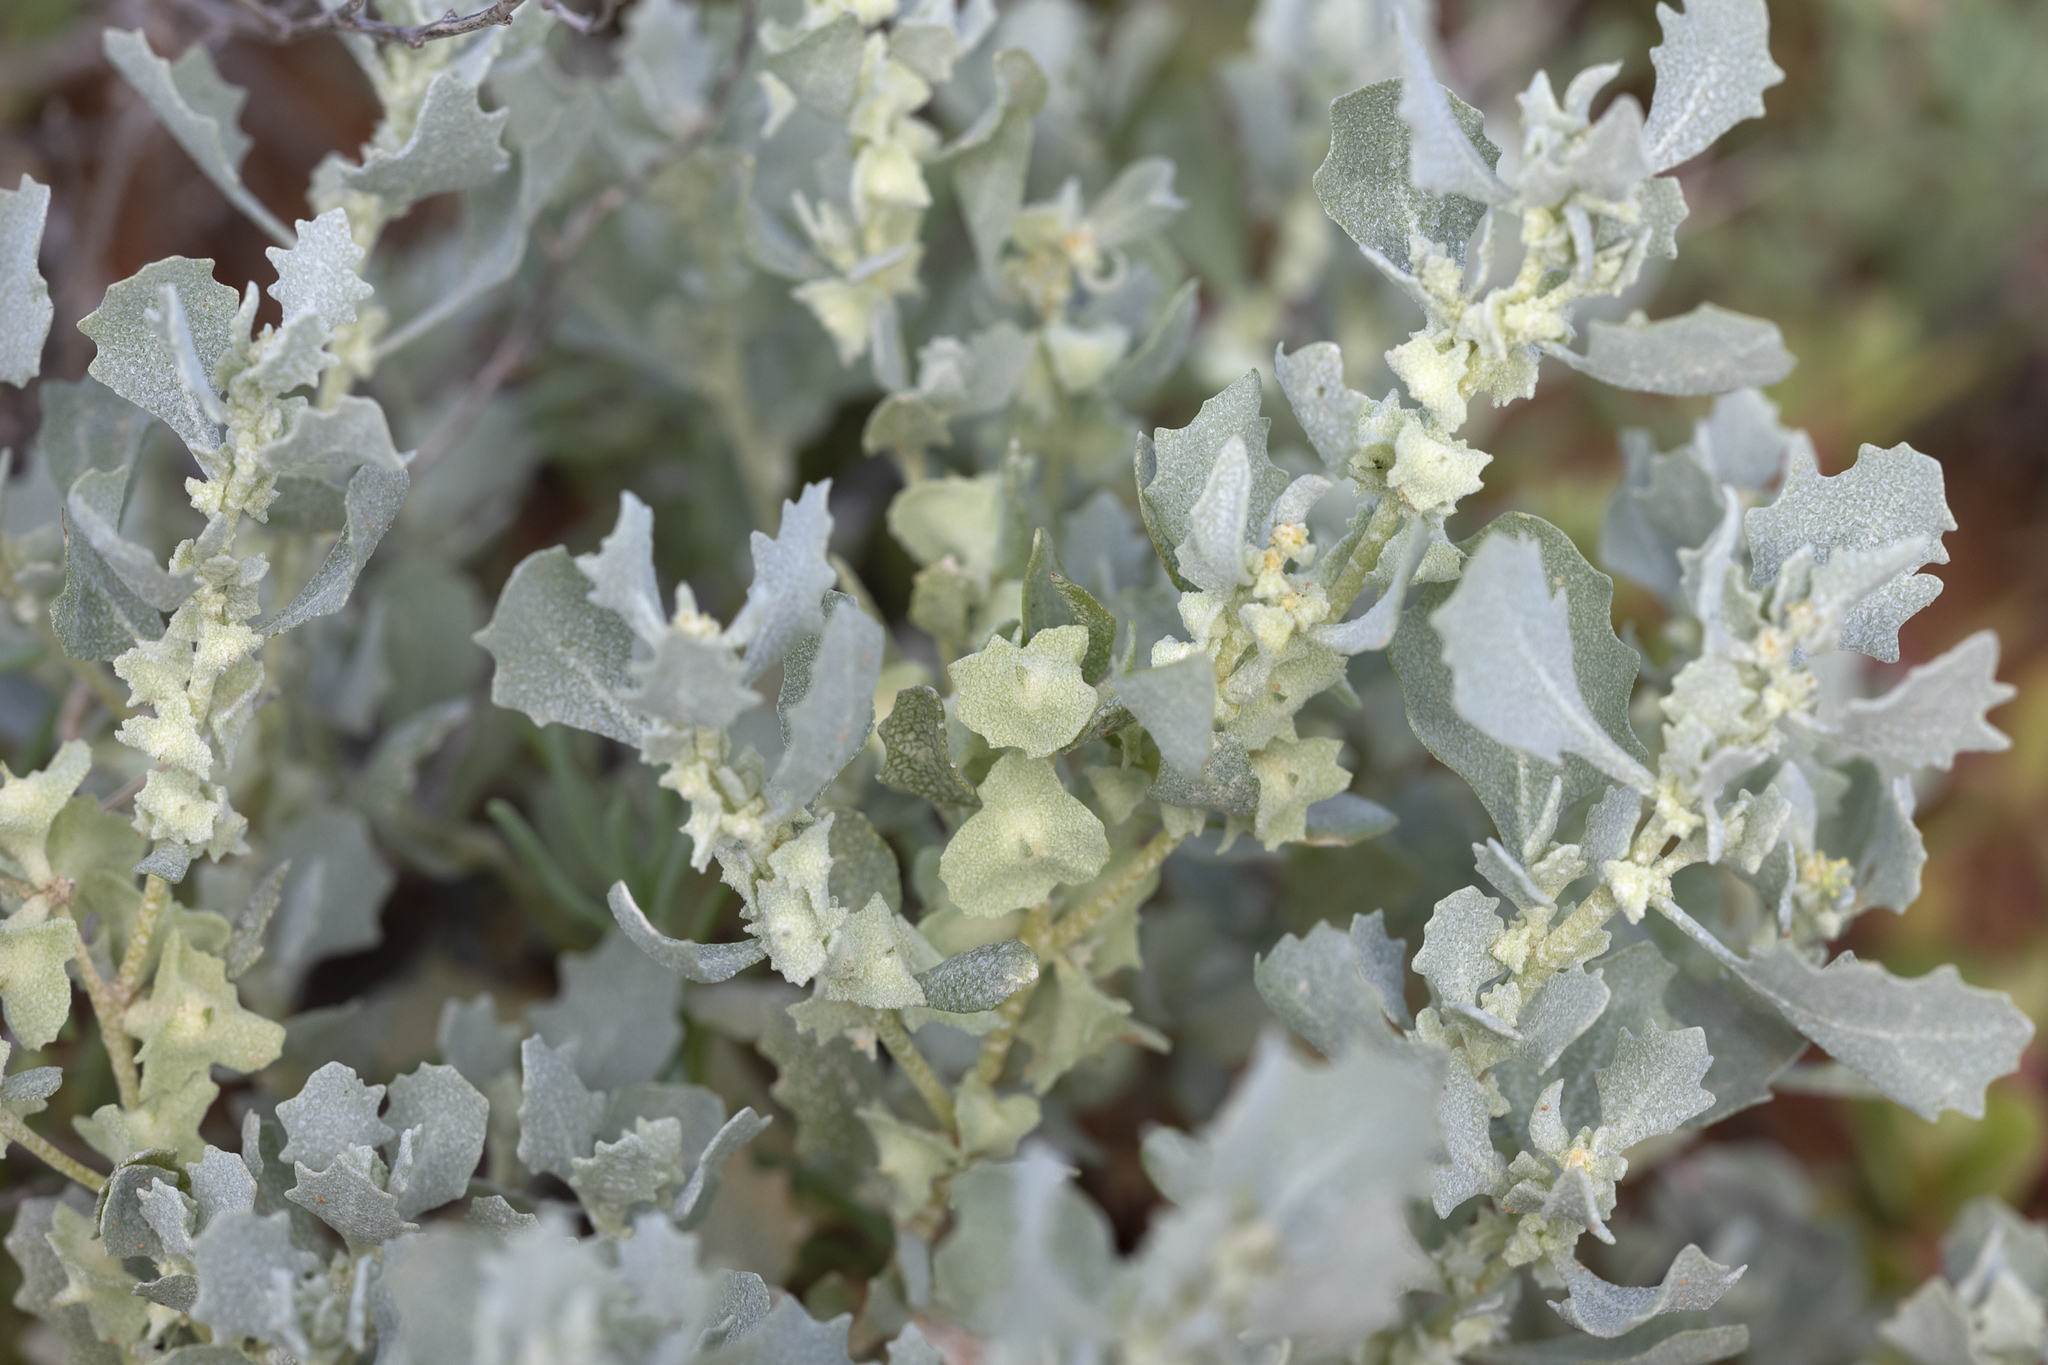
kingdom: Plantae
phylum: Tracheophyta
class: Magnoliopsida
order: Caryophyllales
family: Amaranthaceae
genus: Atriplex
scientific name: Atriplex lindleyi
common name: Lindley's saltbush
